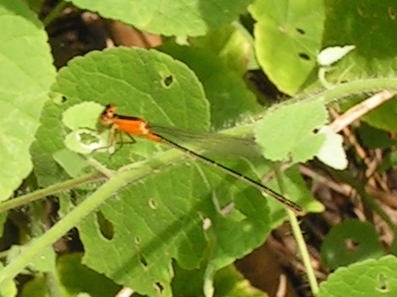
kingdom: Animalia
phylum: Arthropoda
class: Insecta
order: Odonata
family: Coenagrionidae
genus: Ischnura
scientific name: Ischnura
